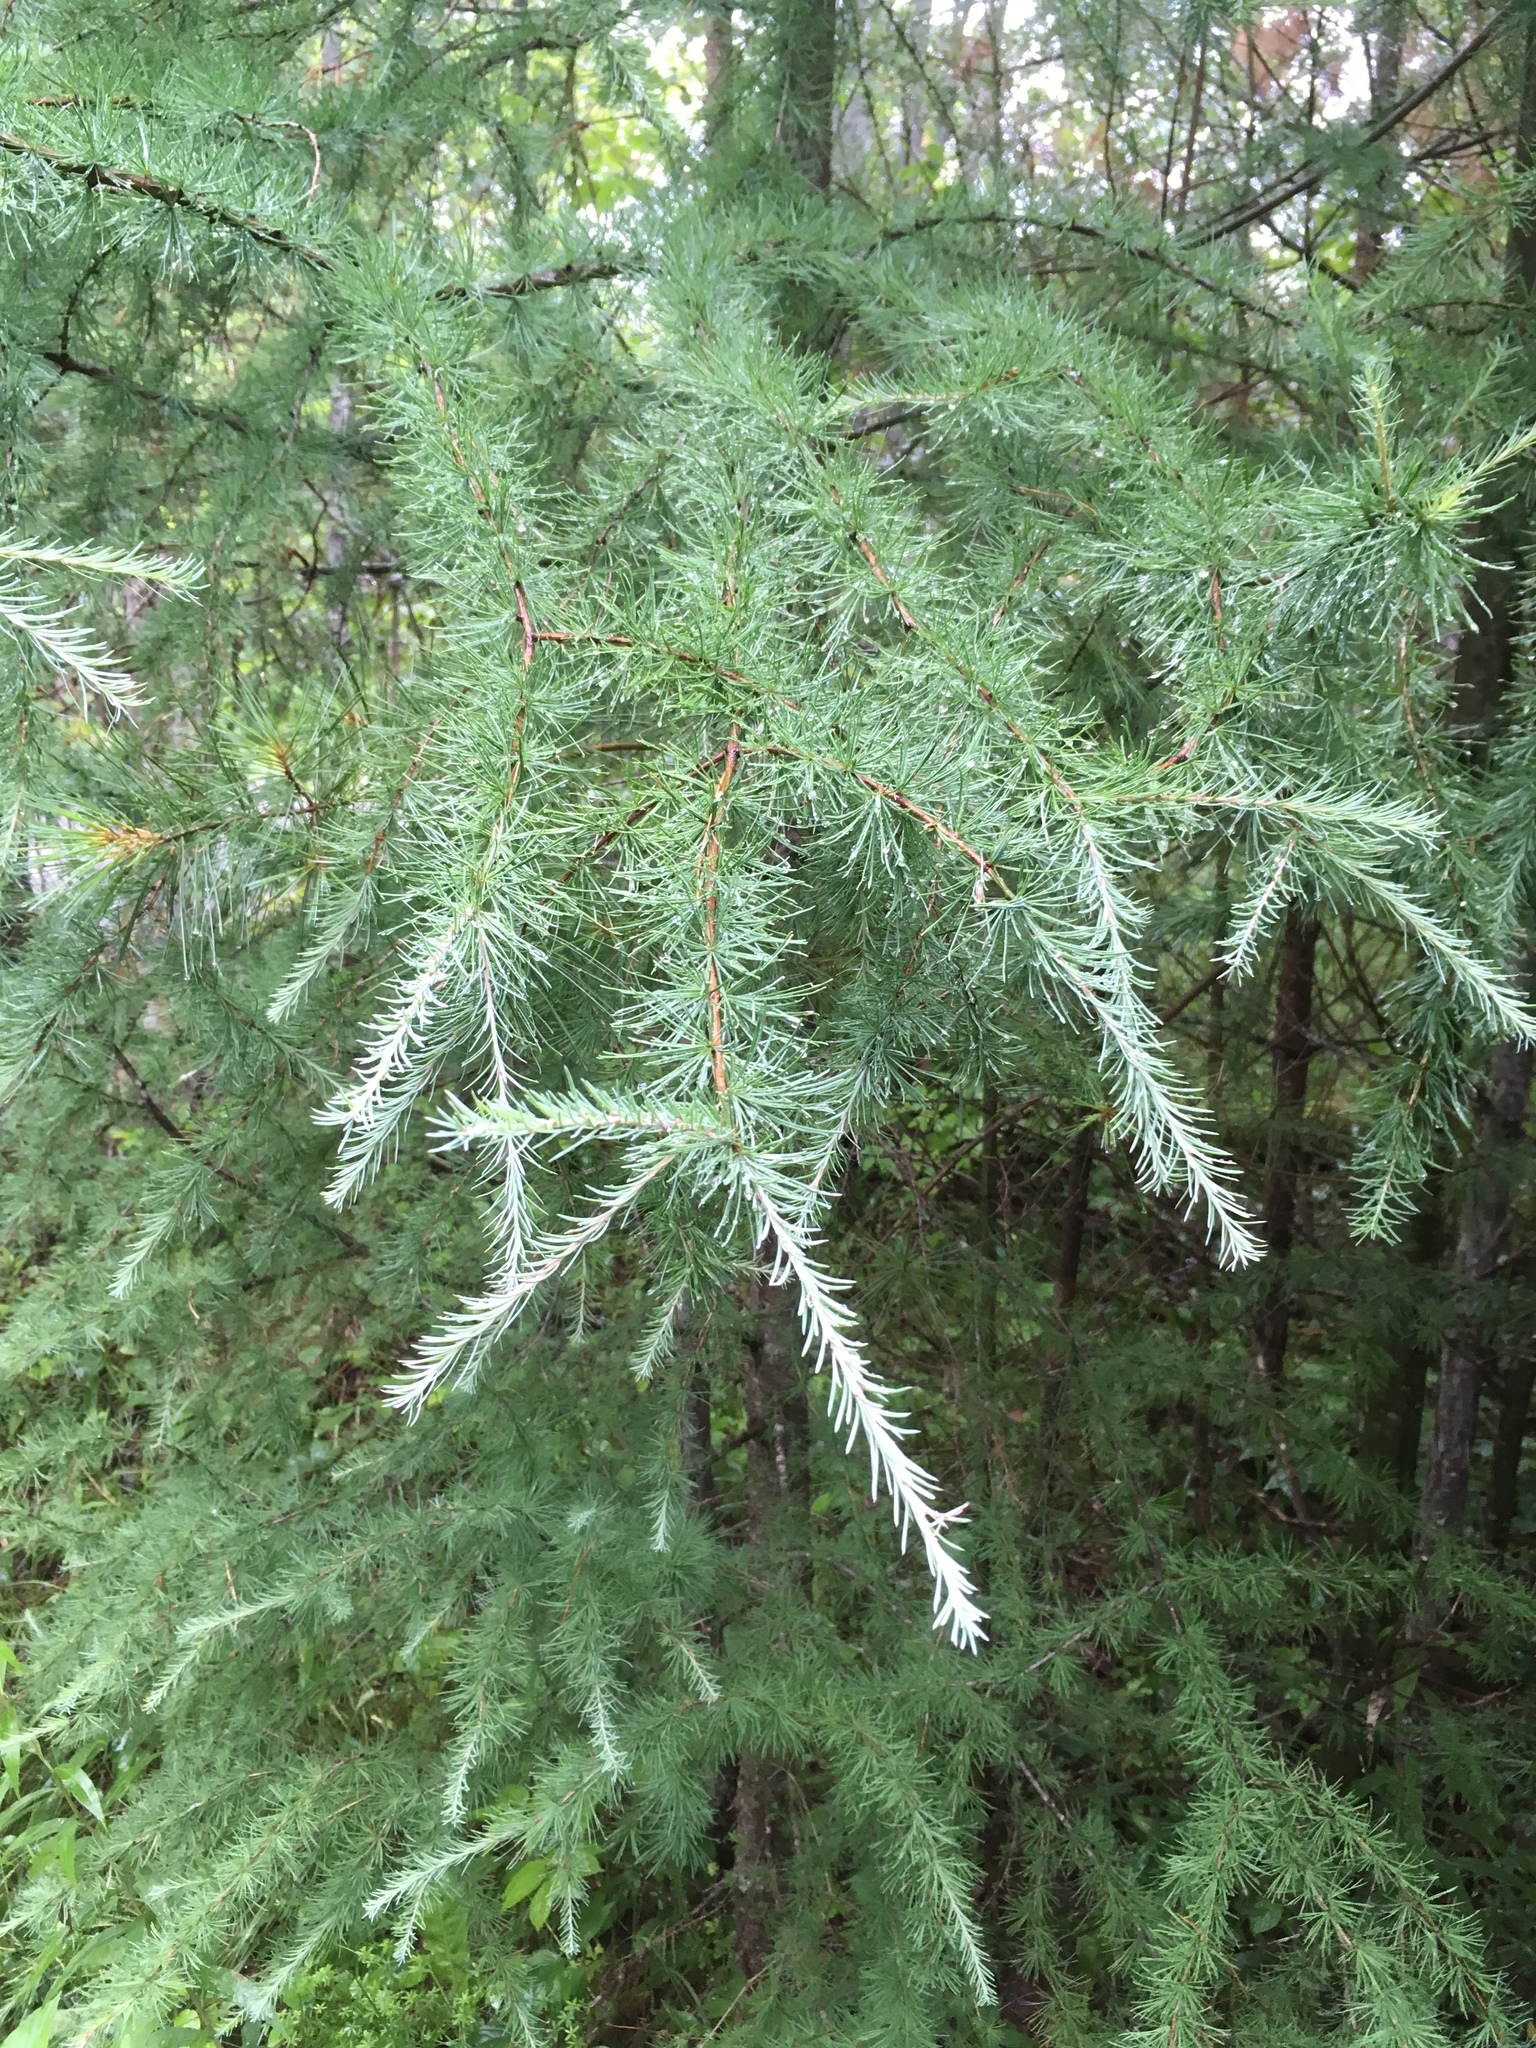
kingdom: Plantae
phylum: Tracheophyta
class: Pinopsida
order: Pinales
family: Pinaceae
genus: Larix
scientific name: Larix laricina
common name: American larch
